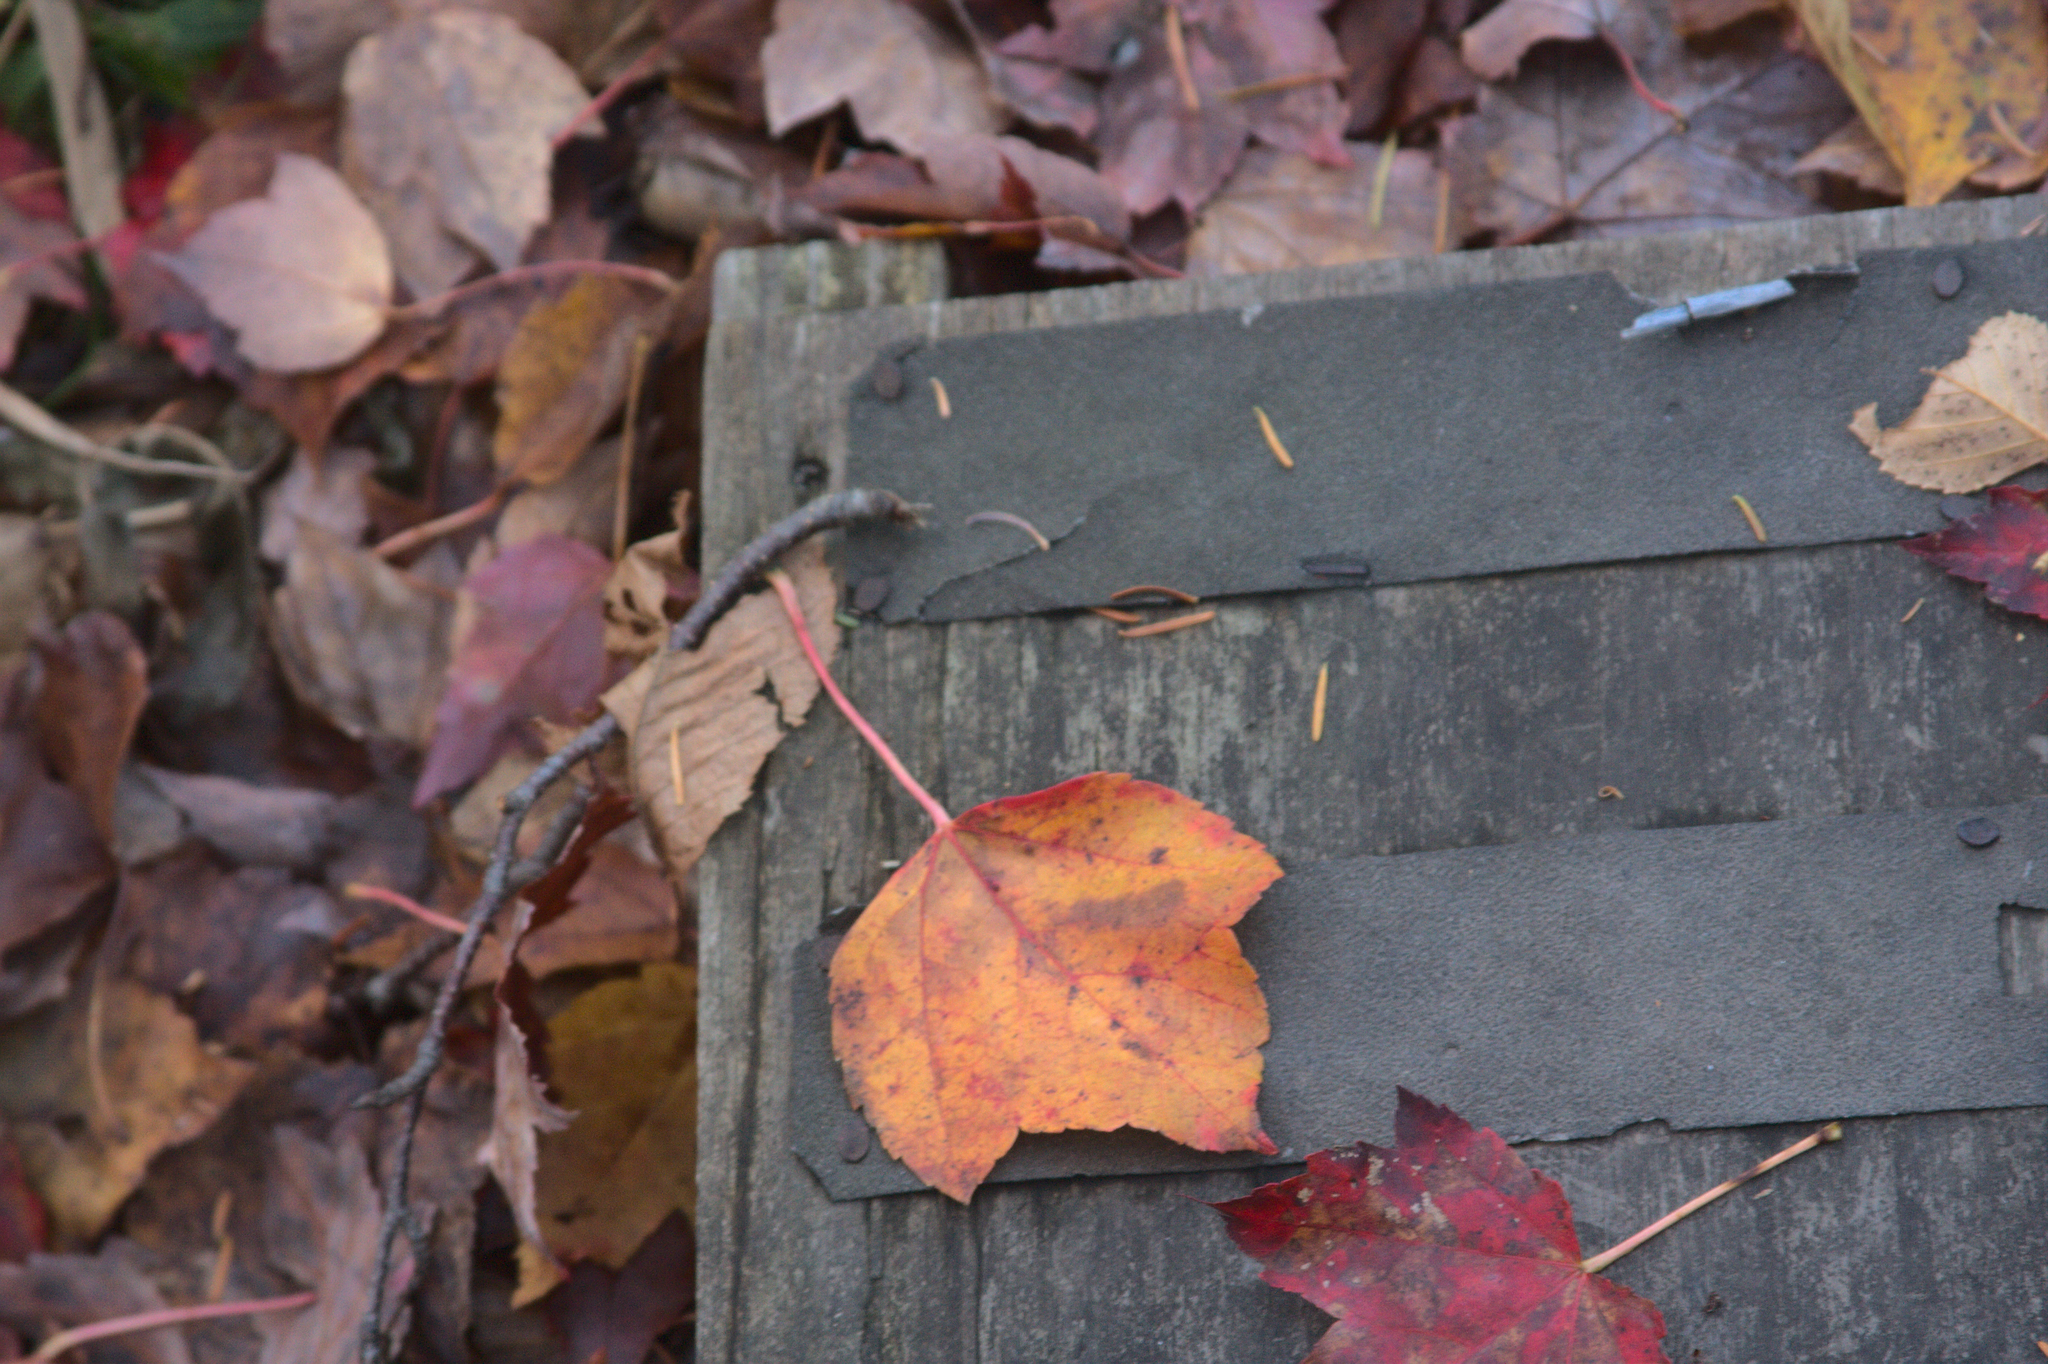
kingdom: Plantae
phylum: Tracheophyta
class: Magnoliopsida
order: Sapindales
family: Sapindaceae
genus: Acer
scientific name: Acer rubrum
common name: Red maple
